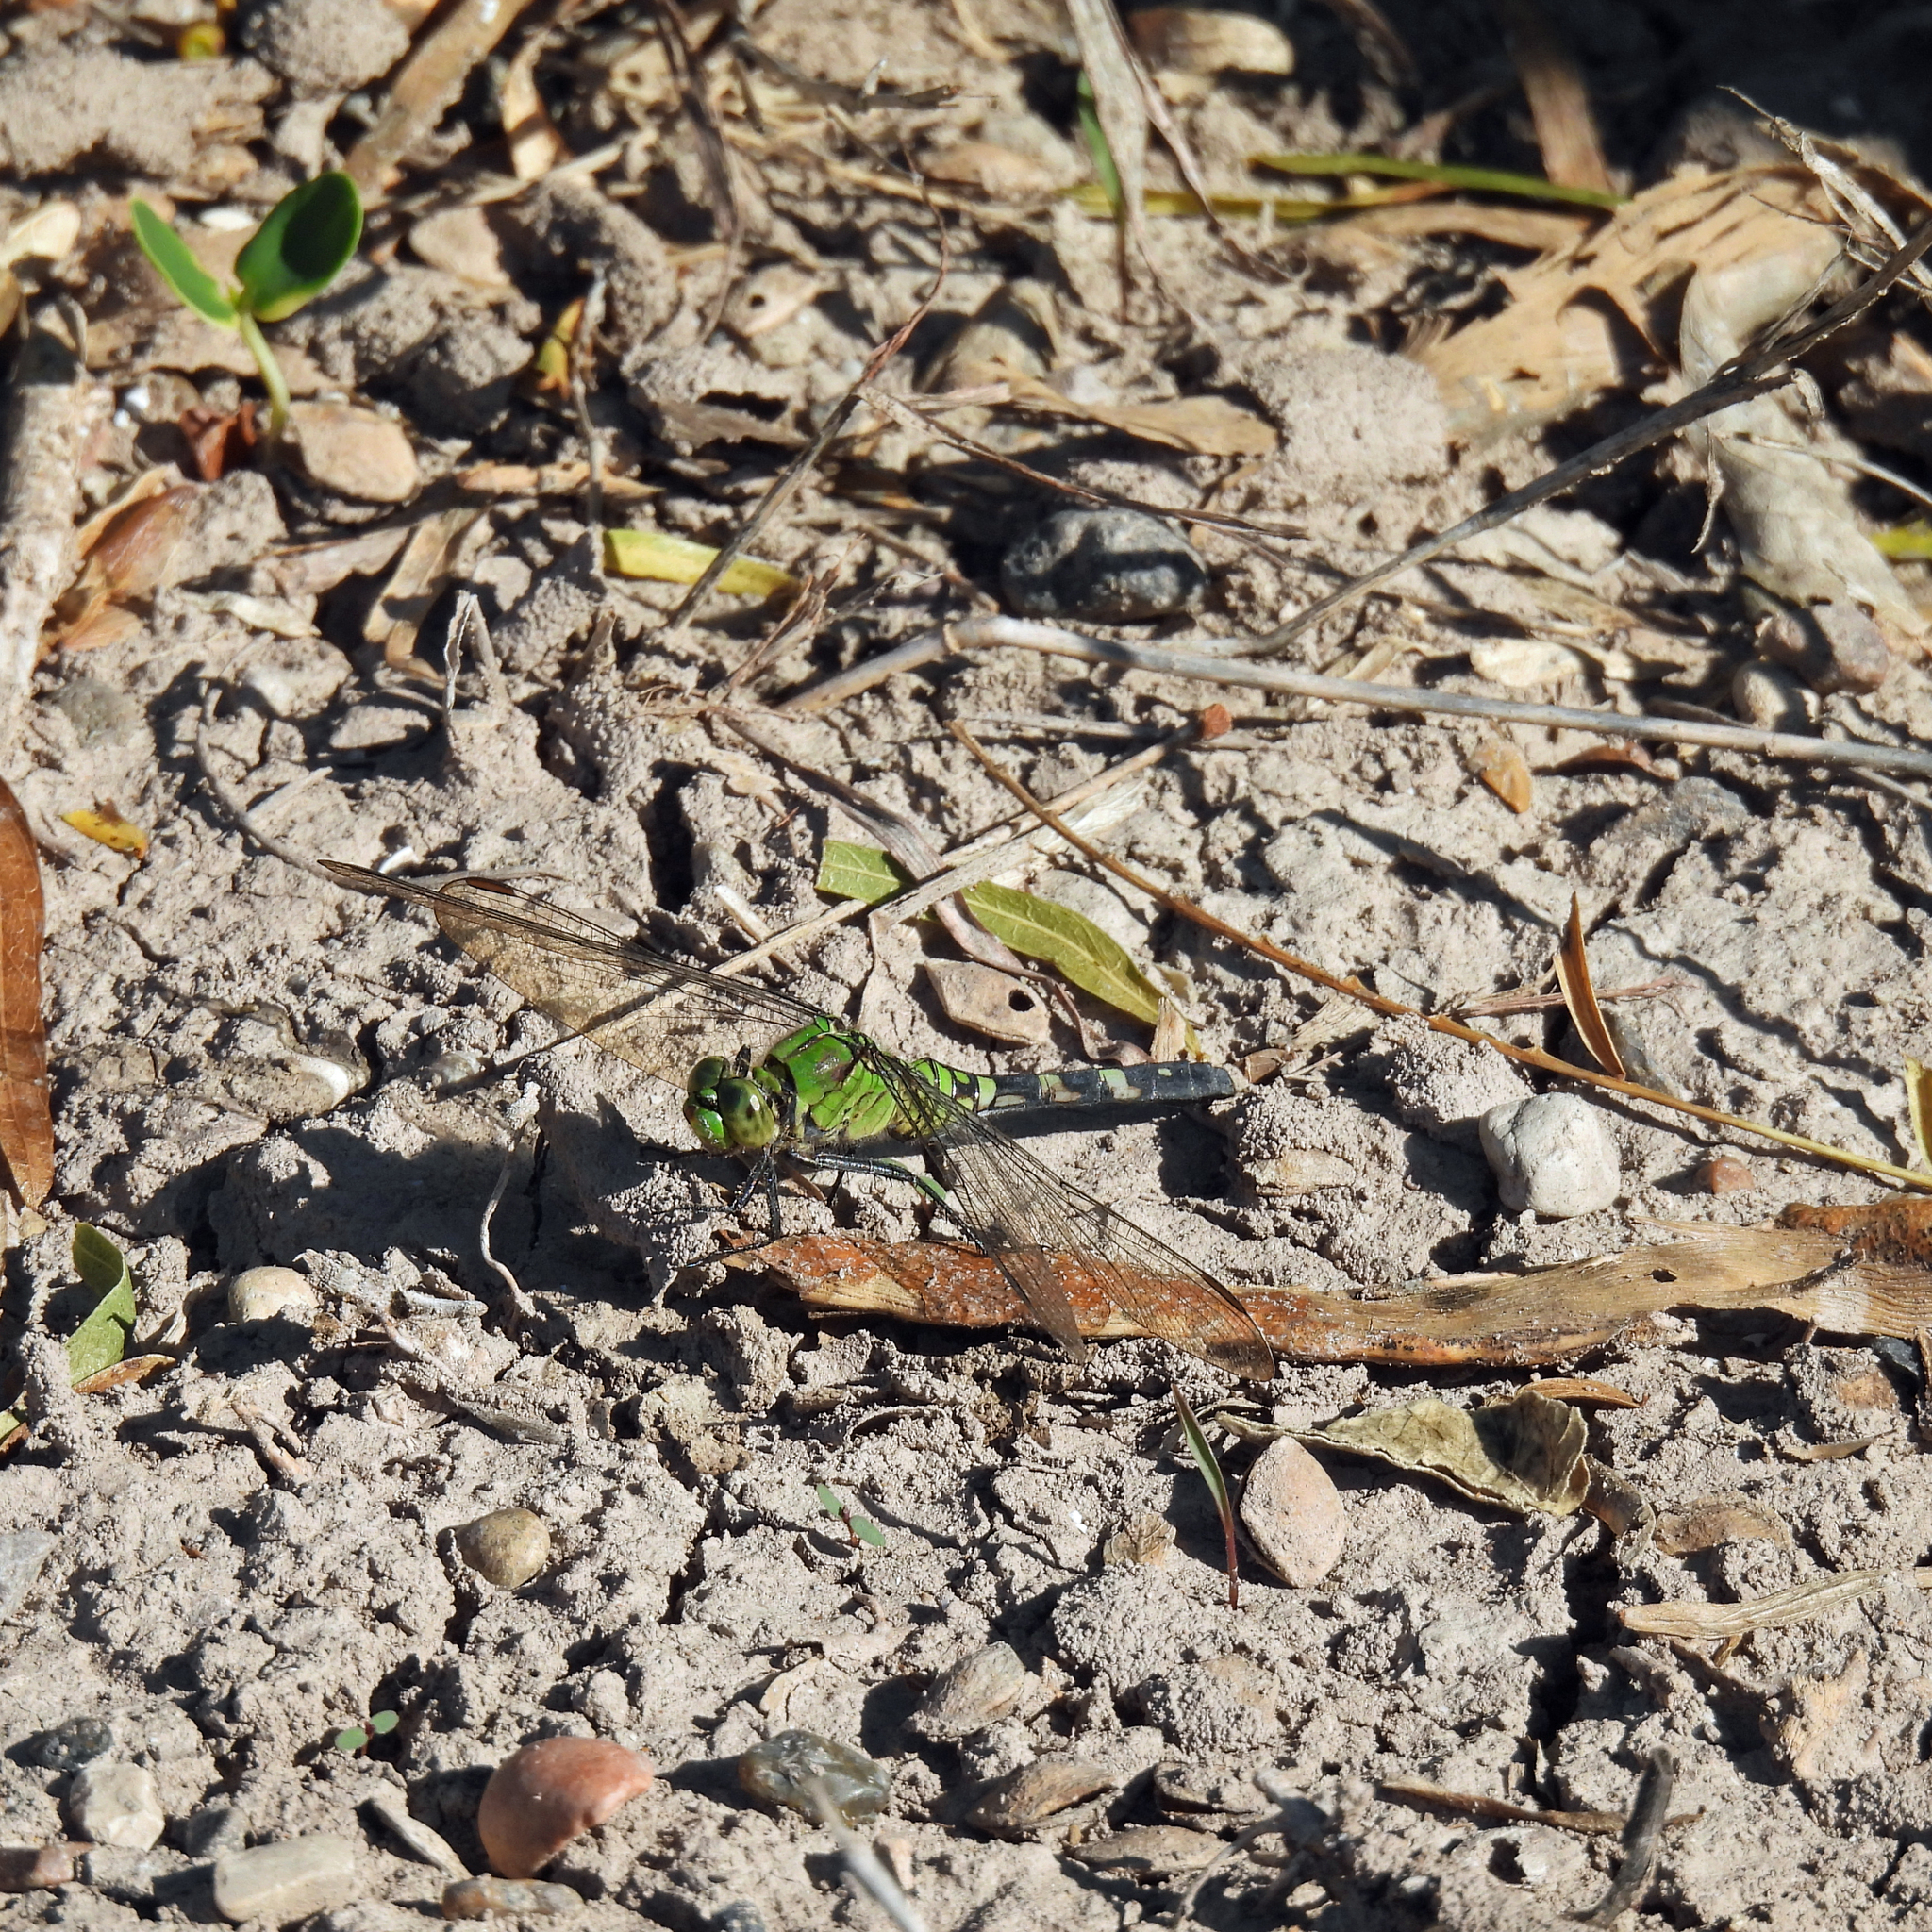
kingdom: Animalia
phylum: Arthropoda
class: Insecta
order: Odonata
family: Libellulidae
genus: Erythemis
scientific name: Erythemis simplicicollis
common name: Eastern pondhawk
